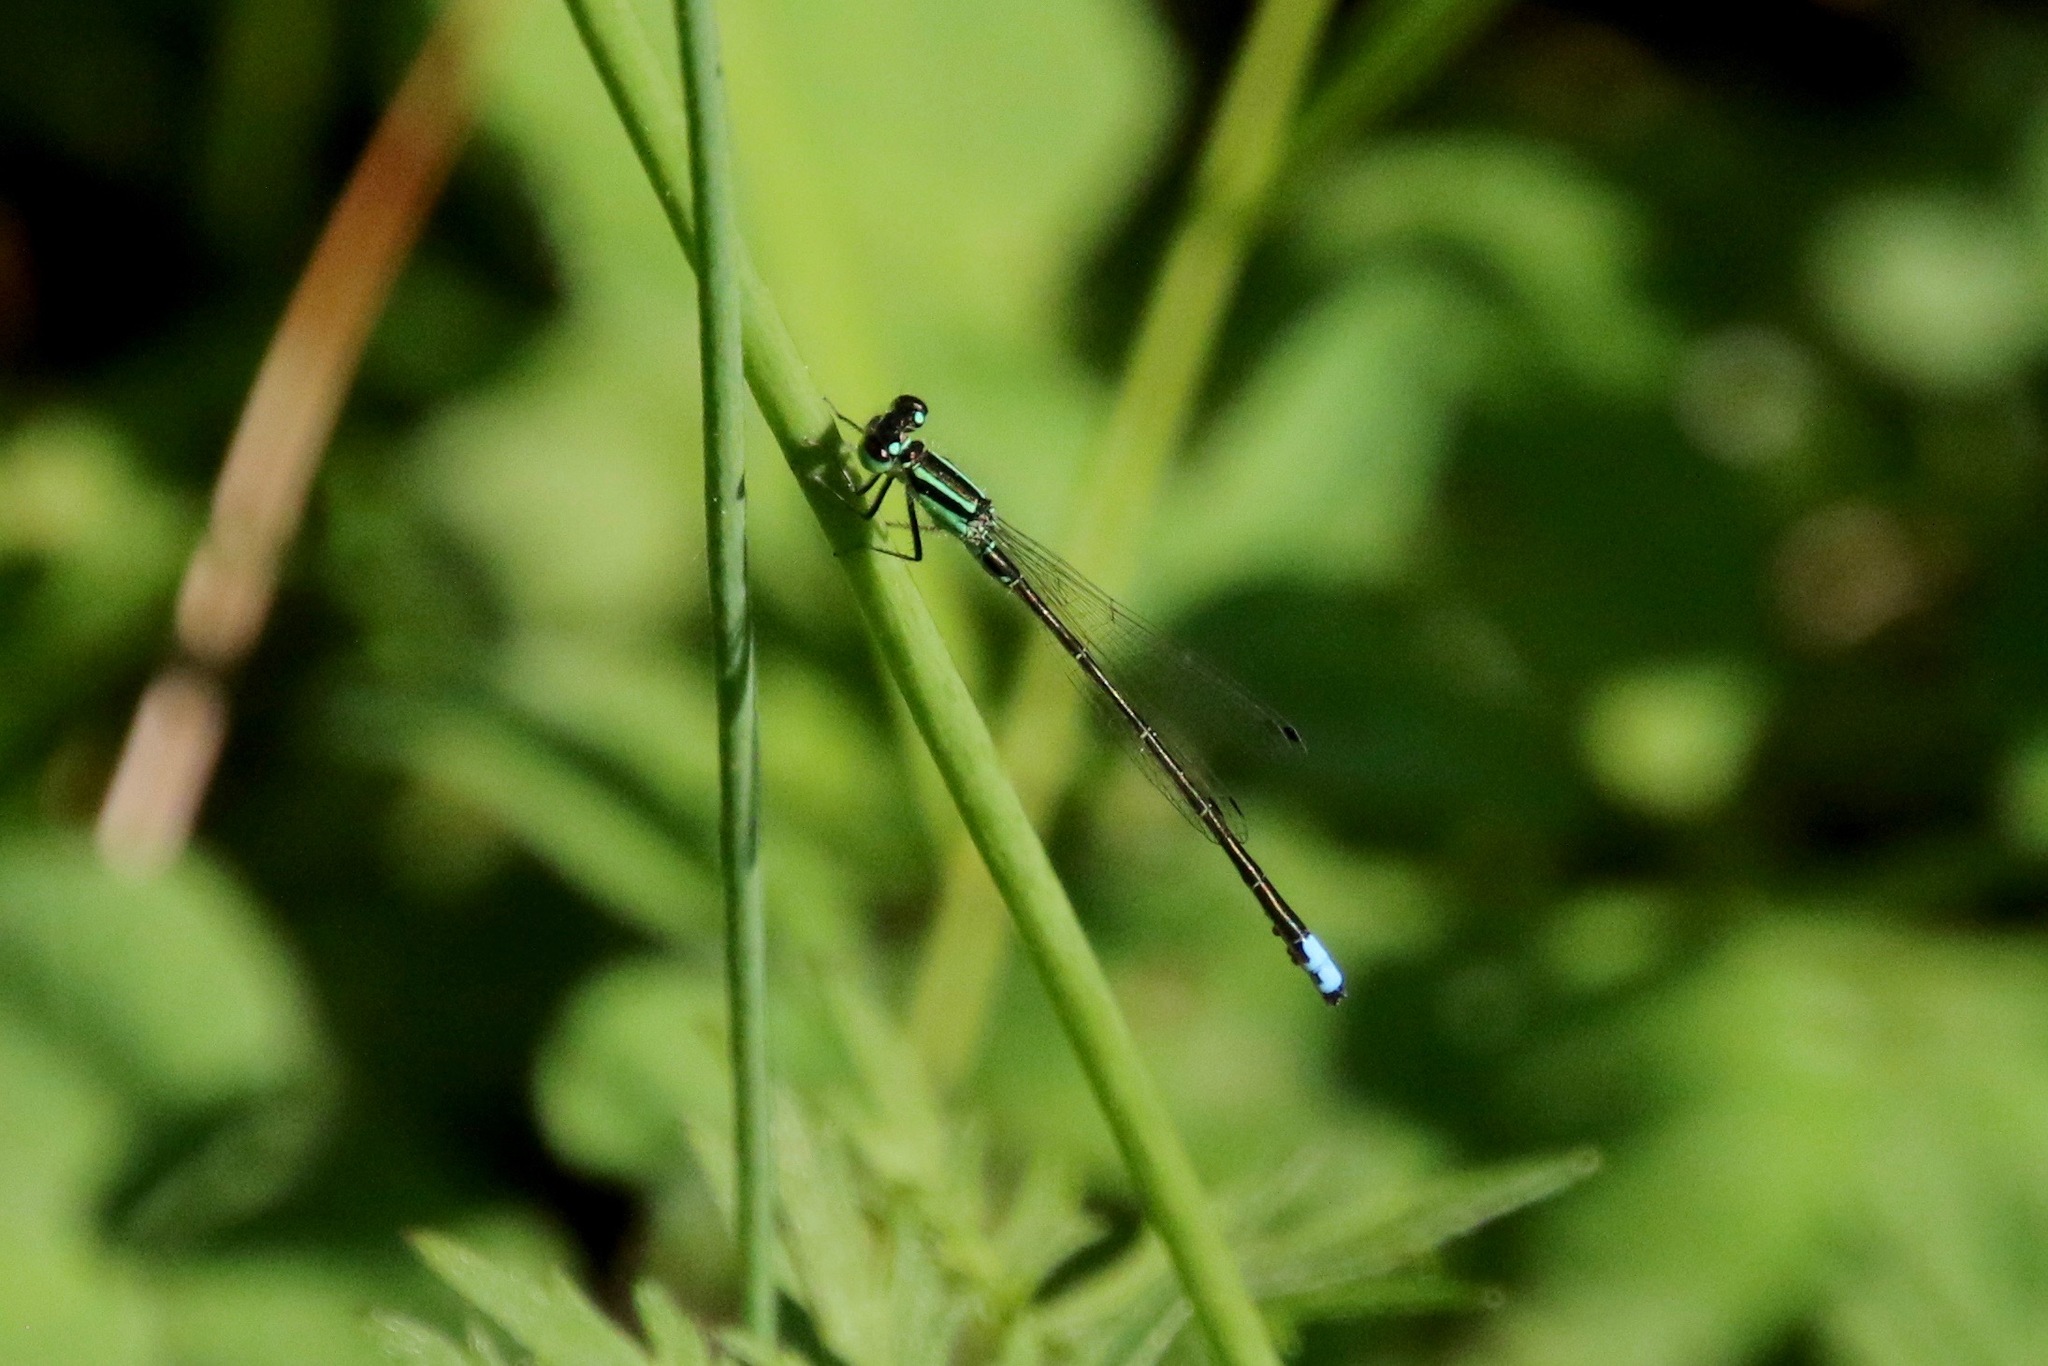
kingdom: Animalia
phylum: Arthropoda
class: Insecta
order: Odonata
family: Coenagrionidae
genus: Ischnura
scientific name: Ischnura verticalis
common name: Eastern forktail
